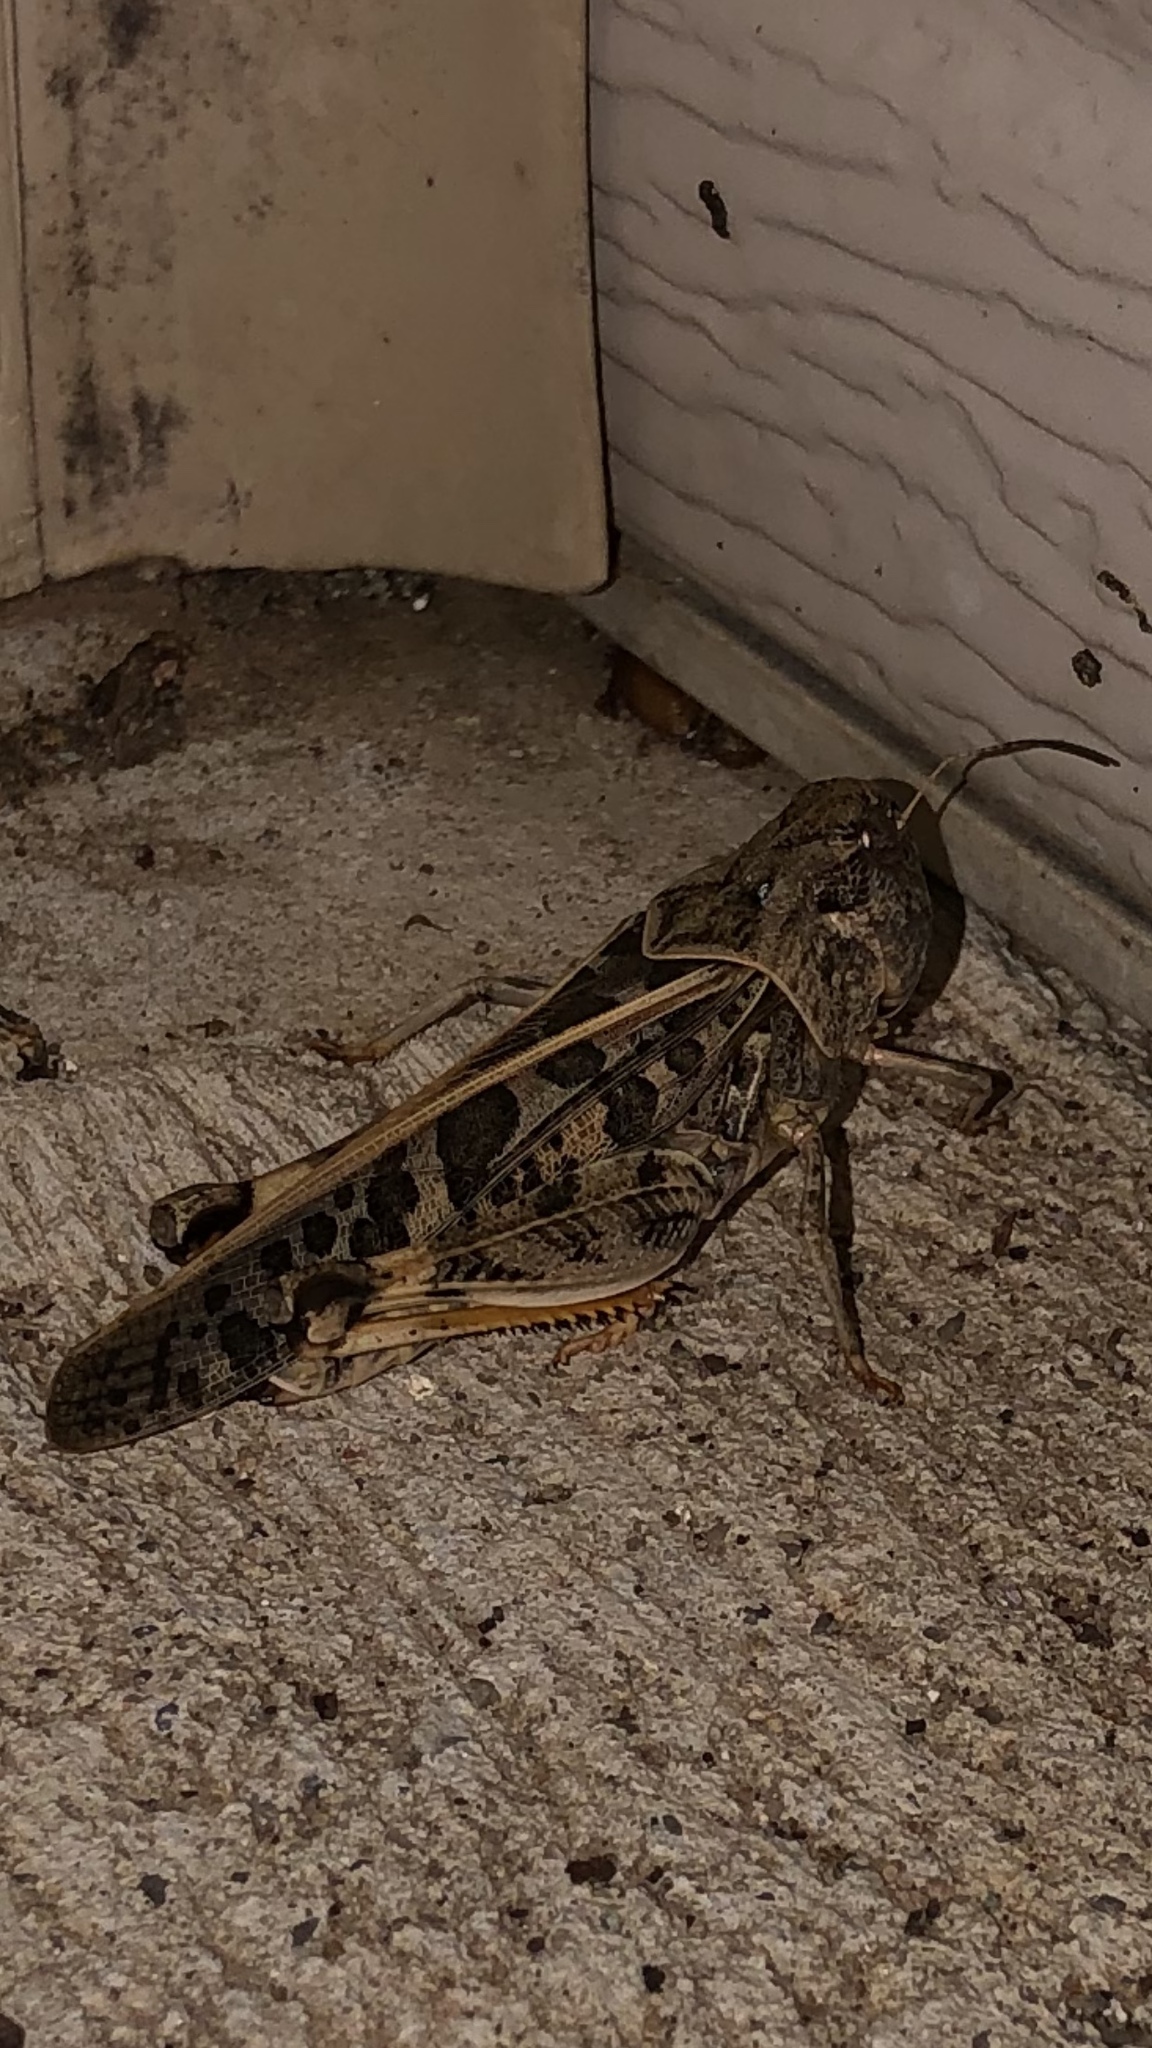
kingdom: Animalia
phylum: Arthropoda
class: Insecta
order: Orthoptera
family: Acrididae
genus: Hippiscus
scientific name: Hippiscus ocelote
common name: Wrinkled grasshopper
